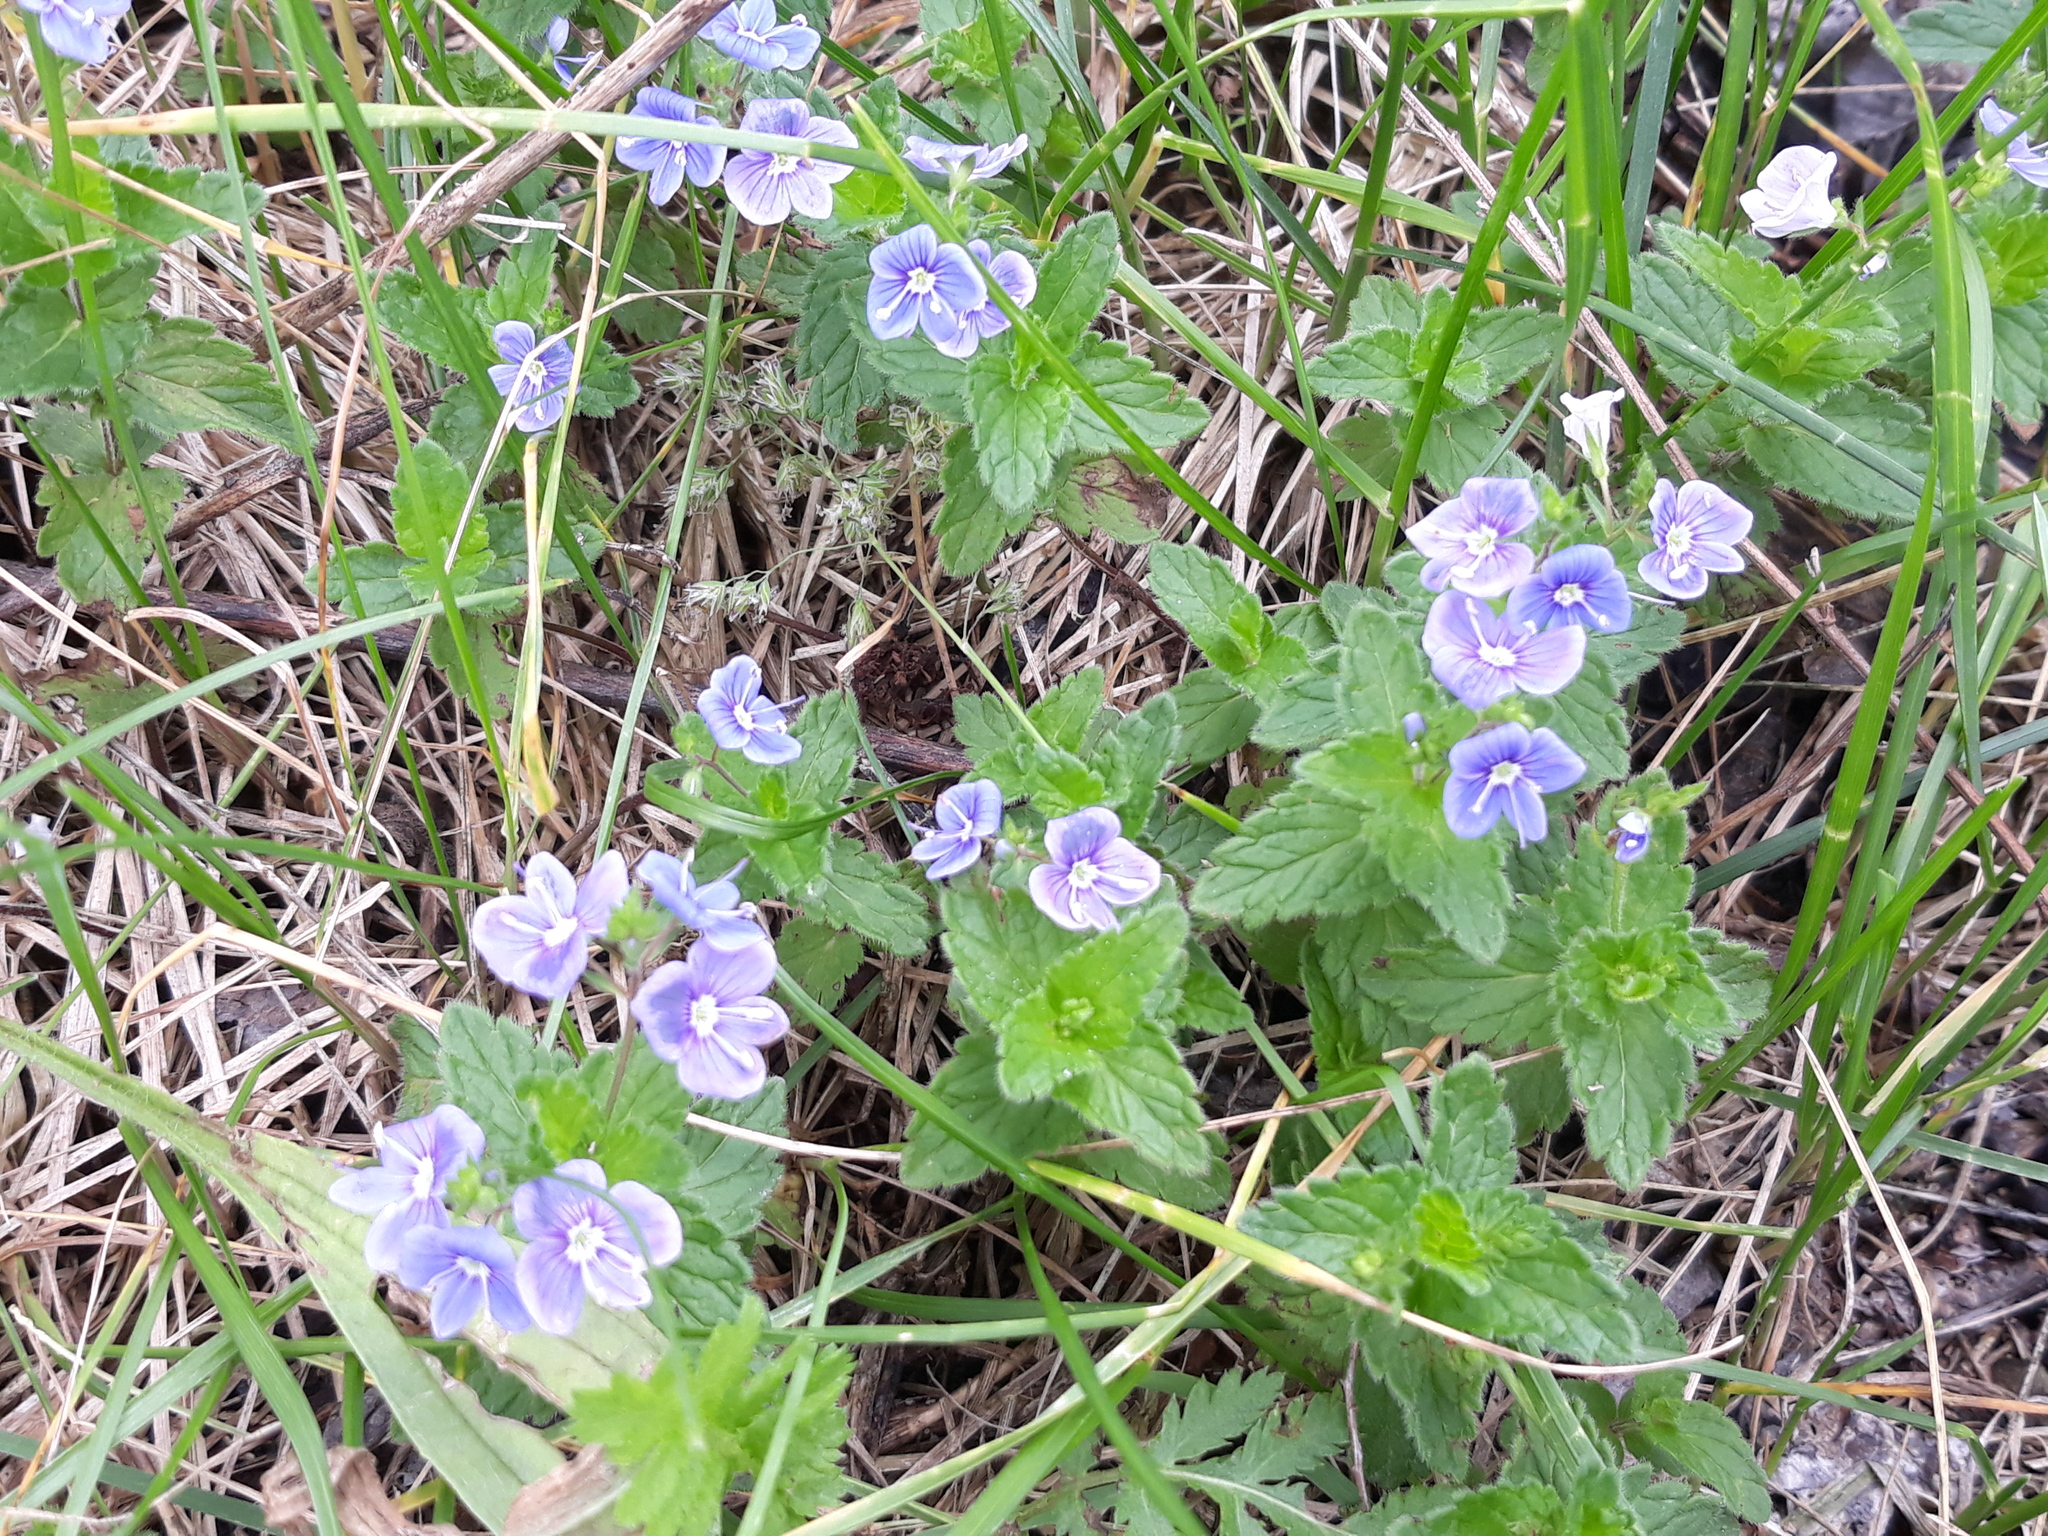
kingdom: Plantae
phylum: Tracheophyta
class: Magnoliopsida
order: Lamiales
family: Plantaginaceae
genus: Veronica
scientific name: Veronica chamaedrys
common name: Germander speedwell
